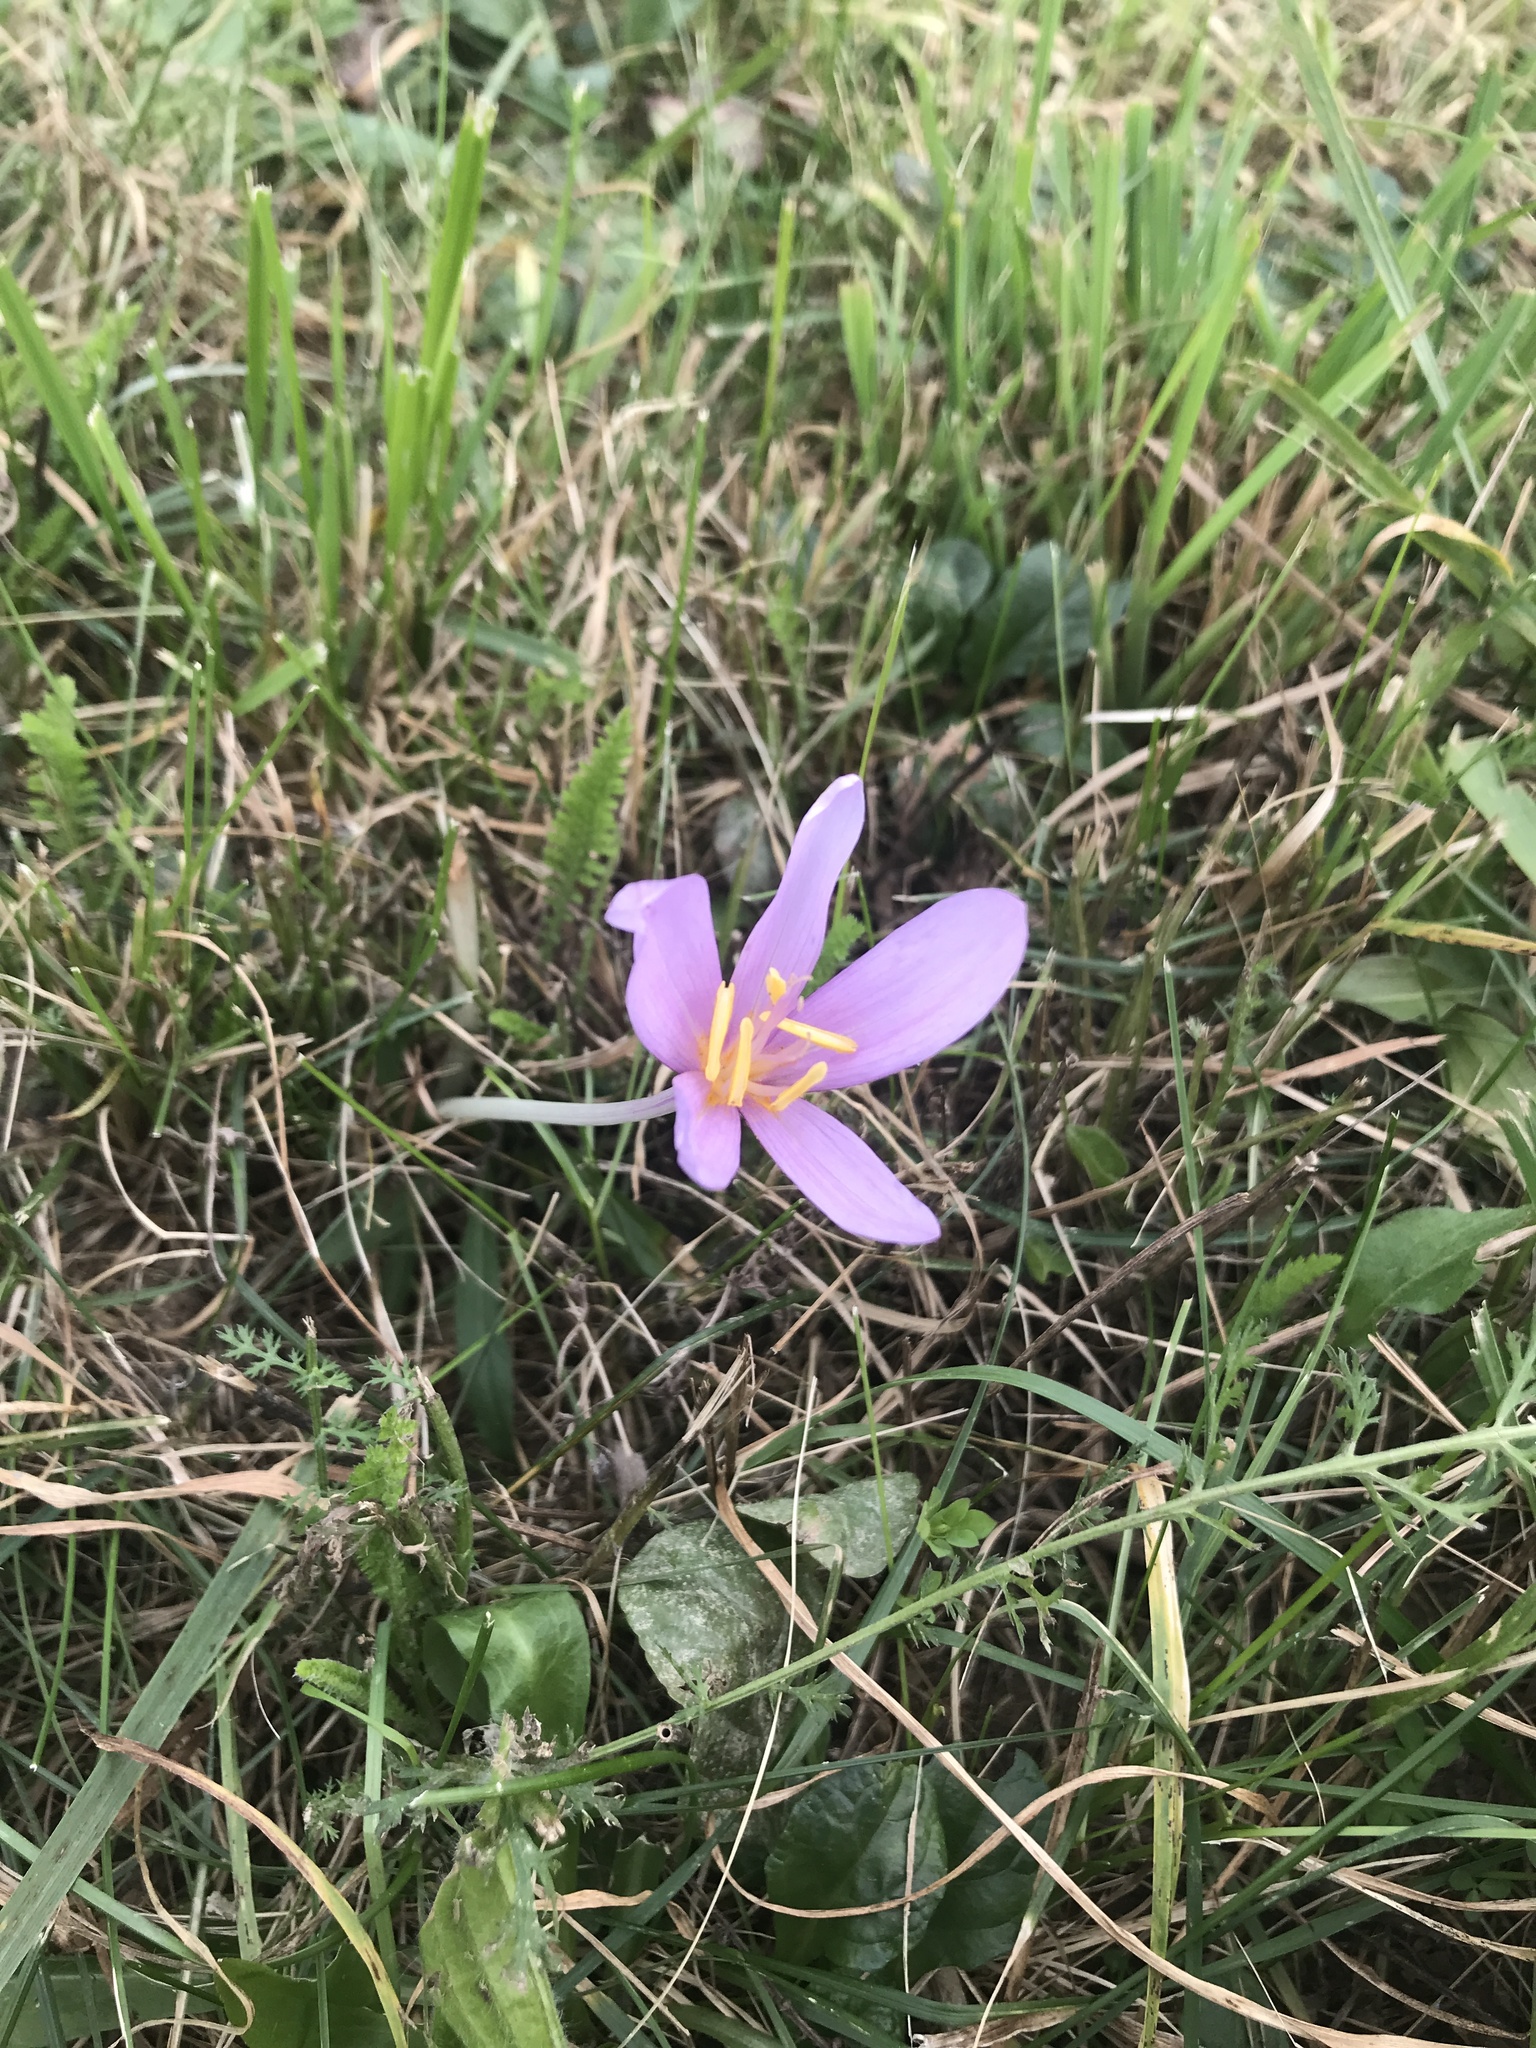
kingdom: Plantae
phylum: Tracheophyta
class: Liliopsida
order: Liliales
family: Colchicaceae
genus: Colchicum
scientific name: Colchicum autumnale
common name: Autumn crocus
